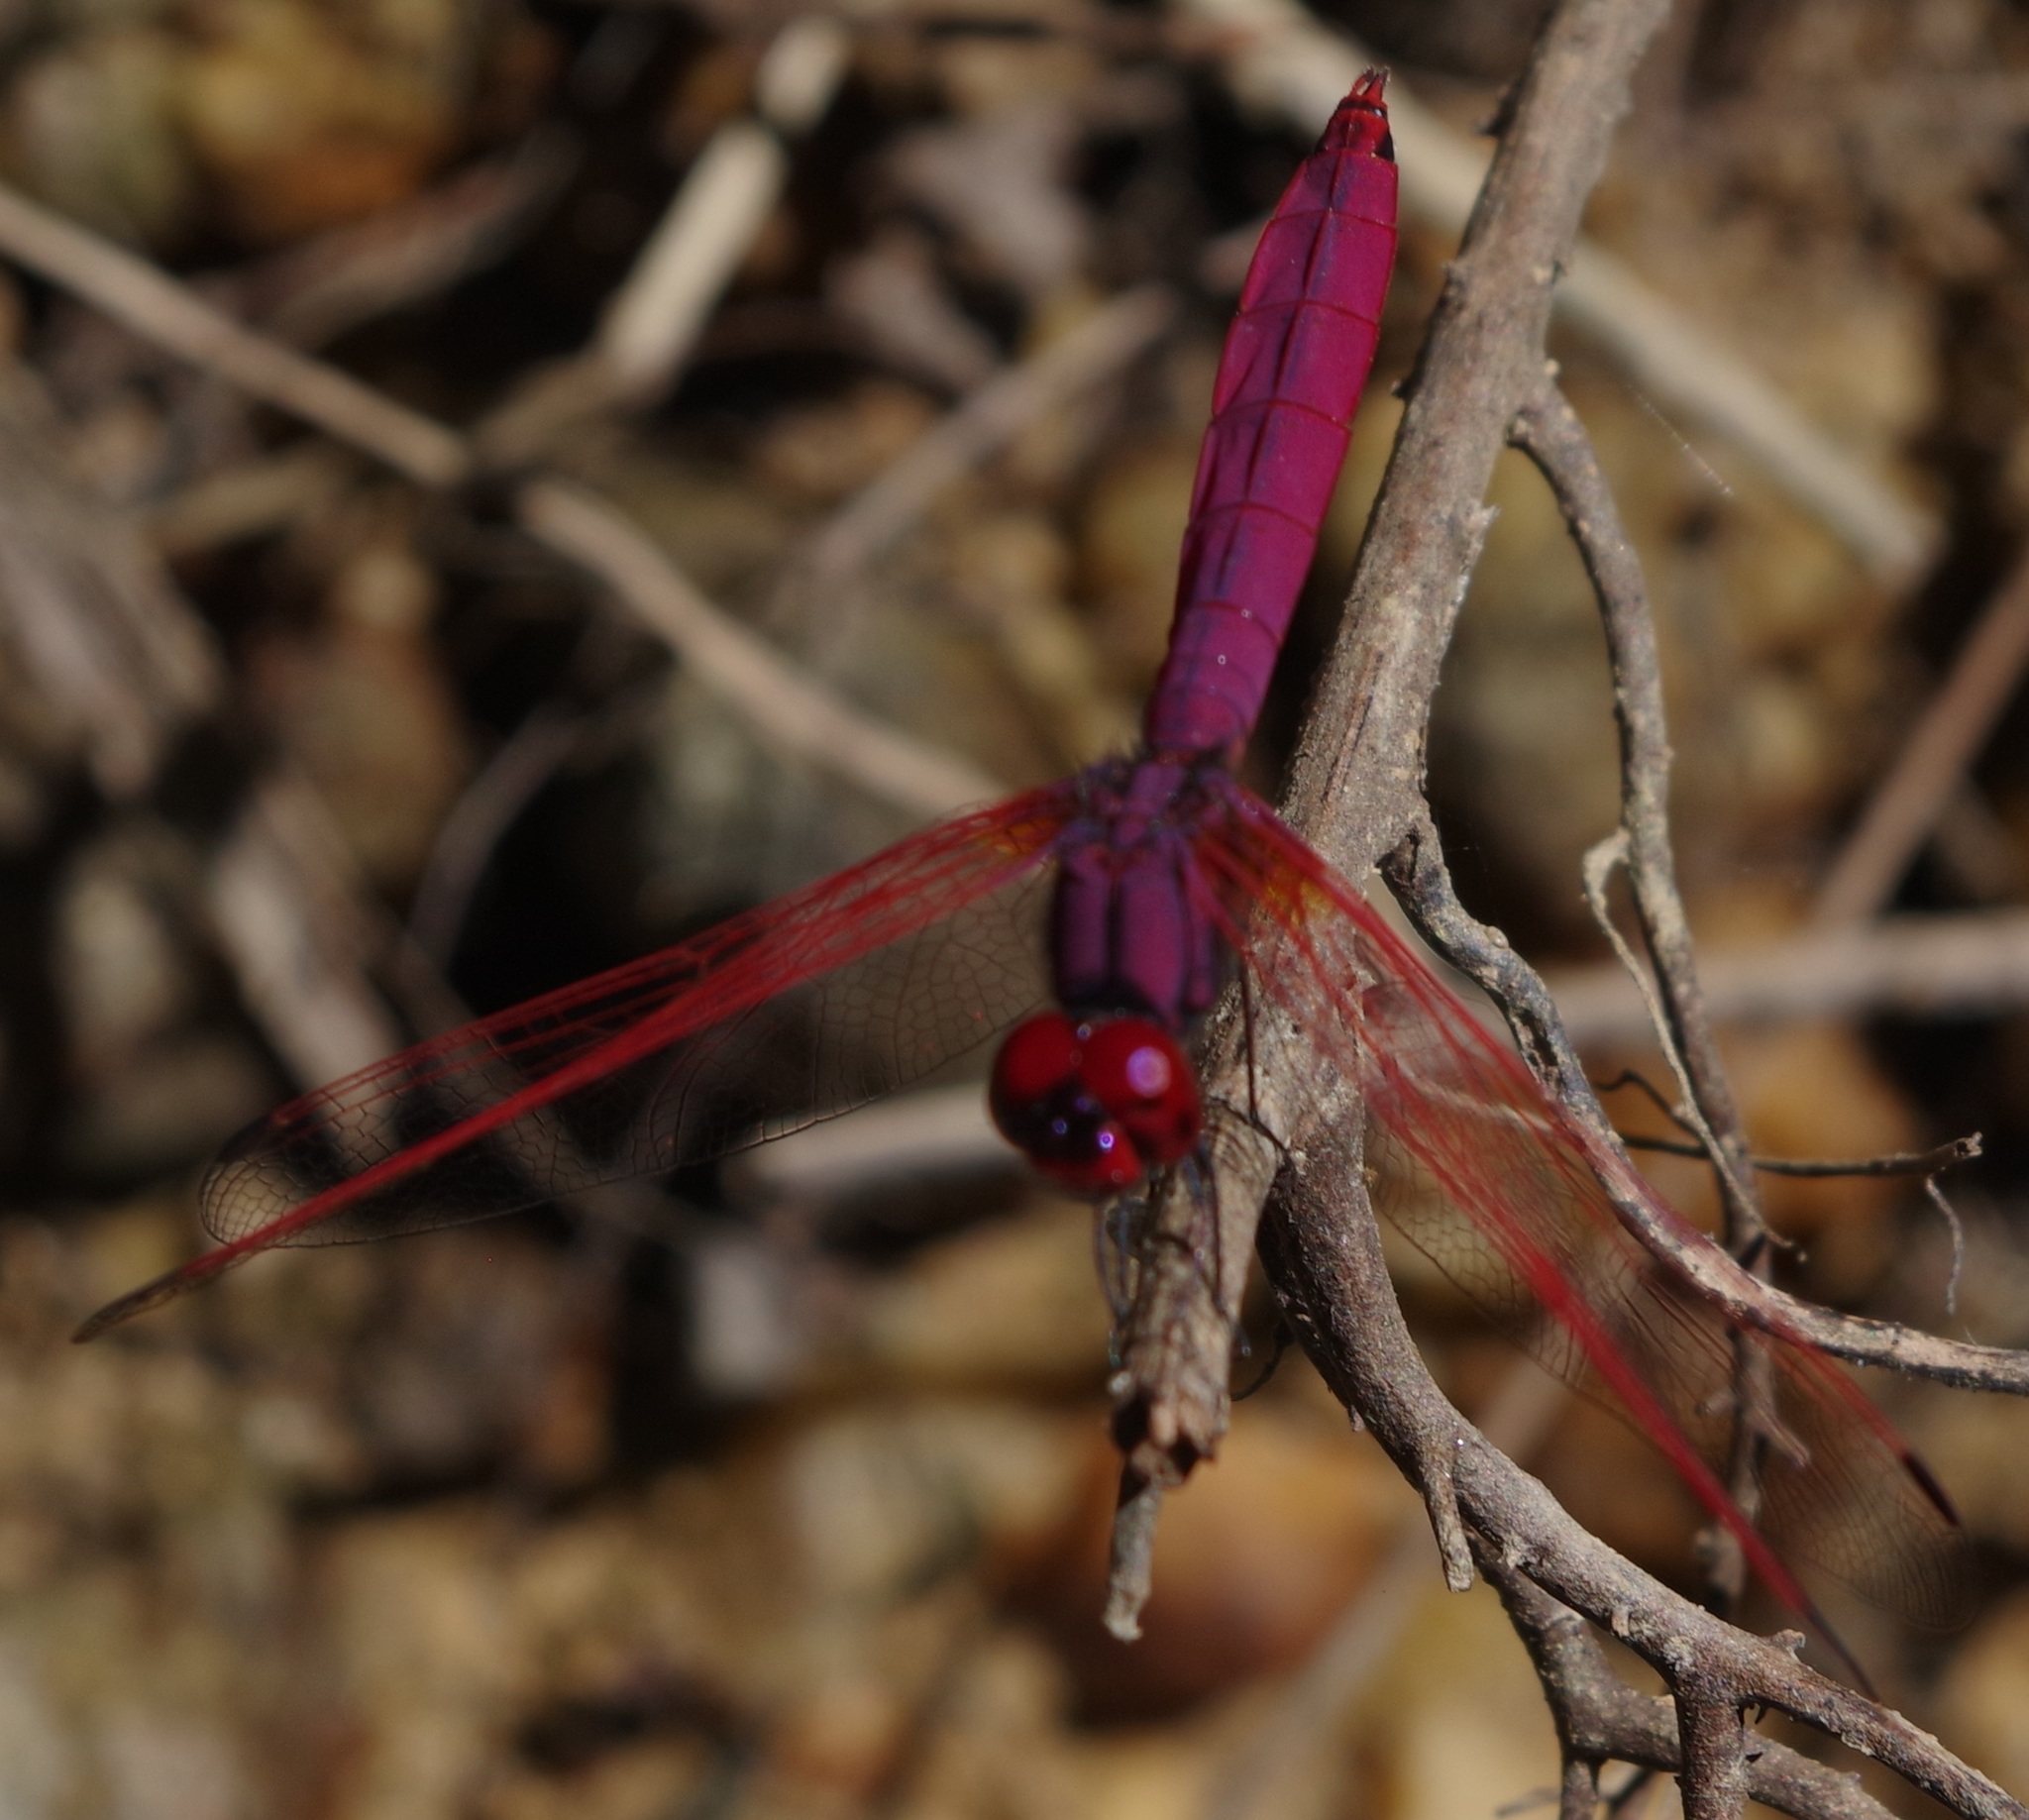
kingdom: Animalia
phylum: Arthropoda
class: Insecta
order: Odonata
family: Libellulidae
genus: Trithemis
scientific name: Trithemis aurora
